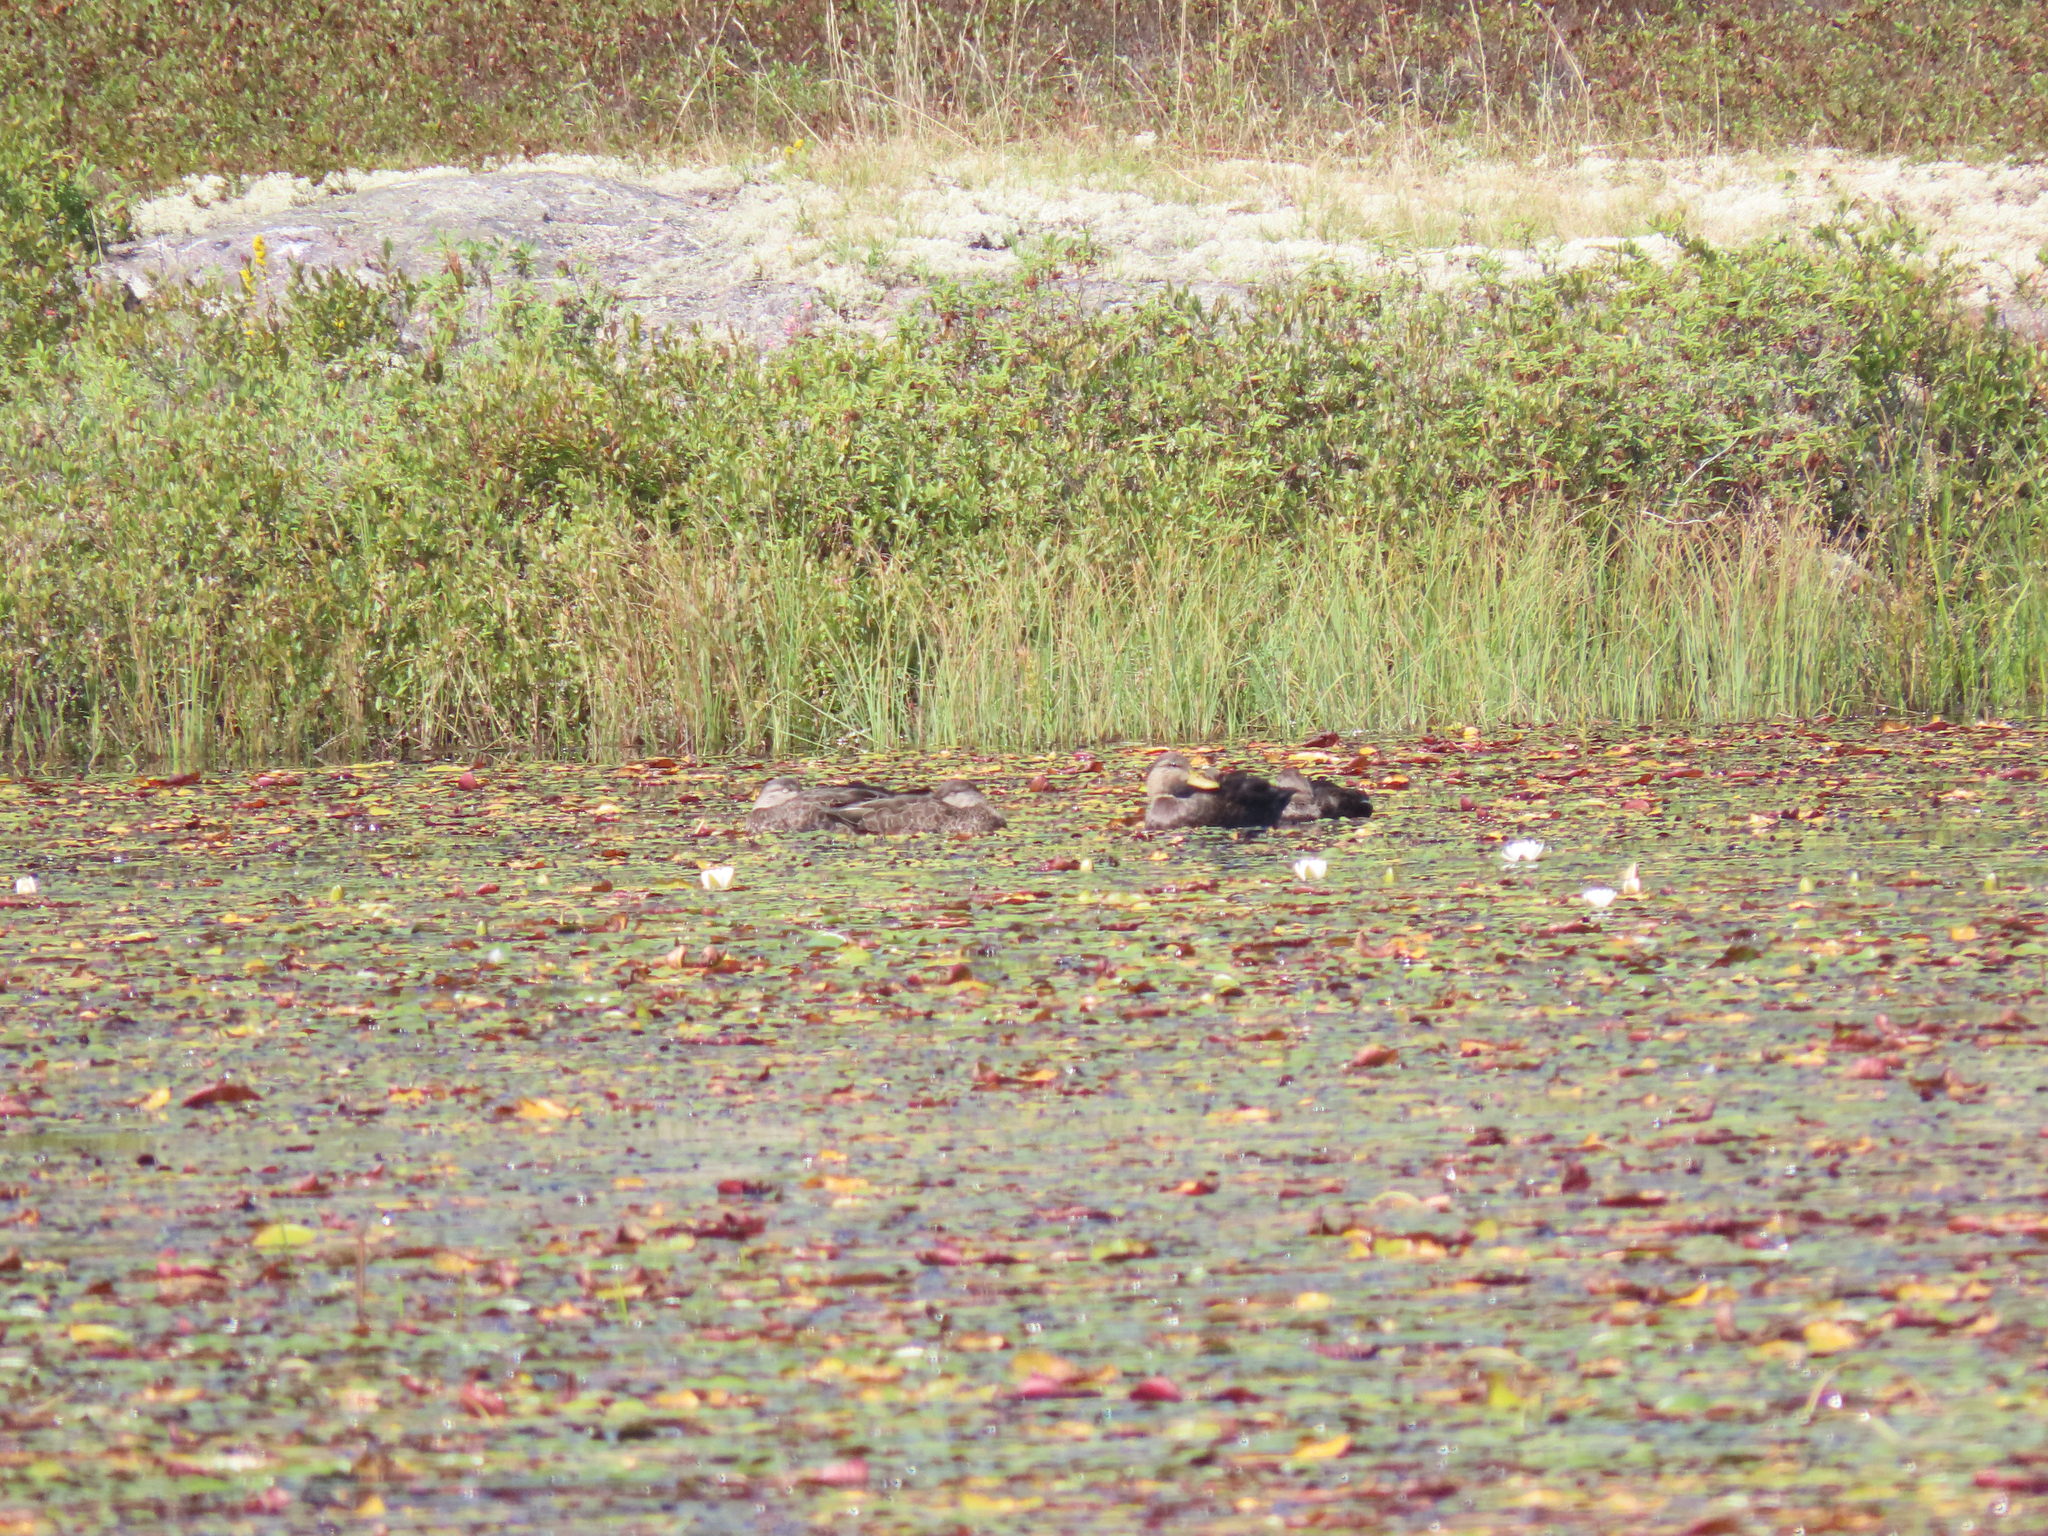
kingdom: Animalia
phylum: Chordata
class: Aves
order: Anseriformes
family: Anatidae
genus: Aix
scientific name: Aix sponsa
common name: Wood duck
